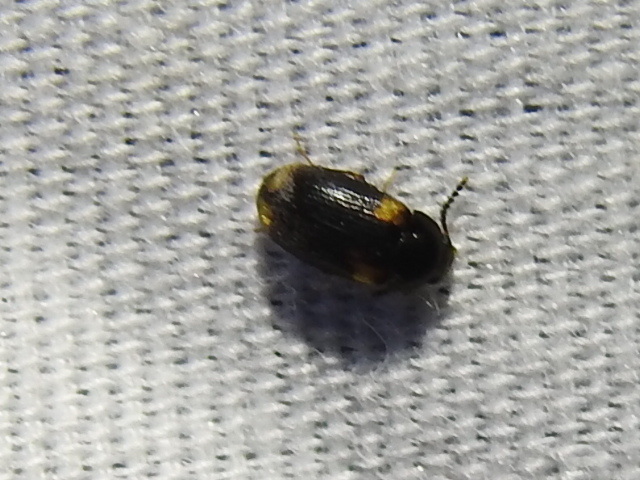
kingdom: Animalia
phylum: Arthropoda
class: Insecta
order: Coleoptera
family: Mycetophagidae
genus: Mycetophagus
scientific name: Mycetophagus serrulatus
